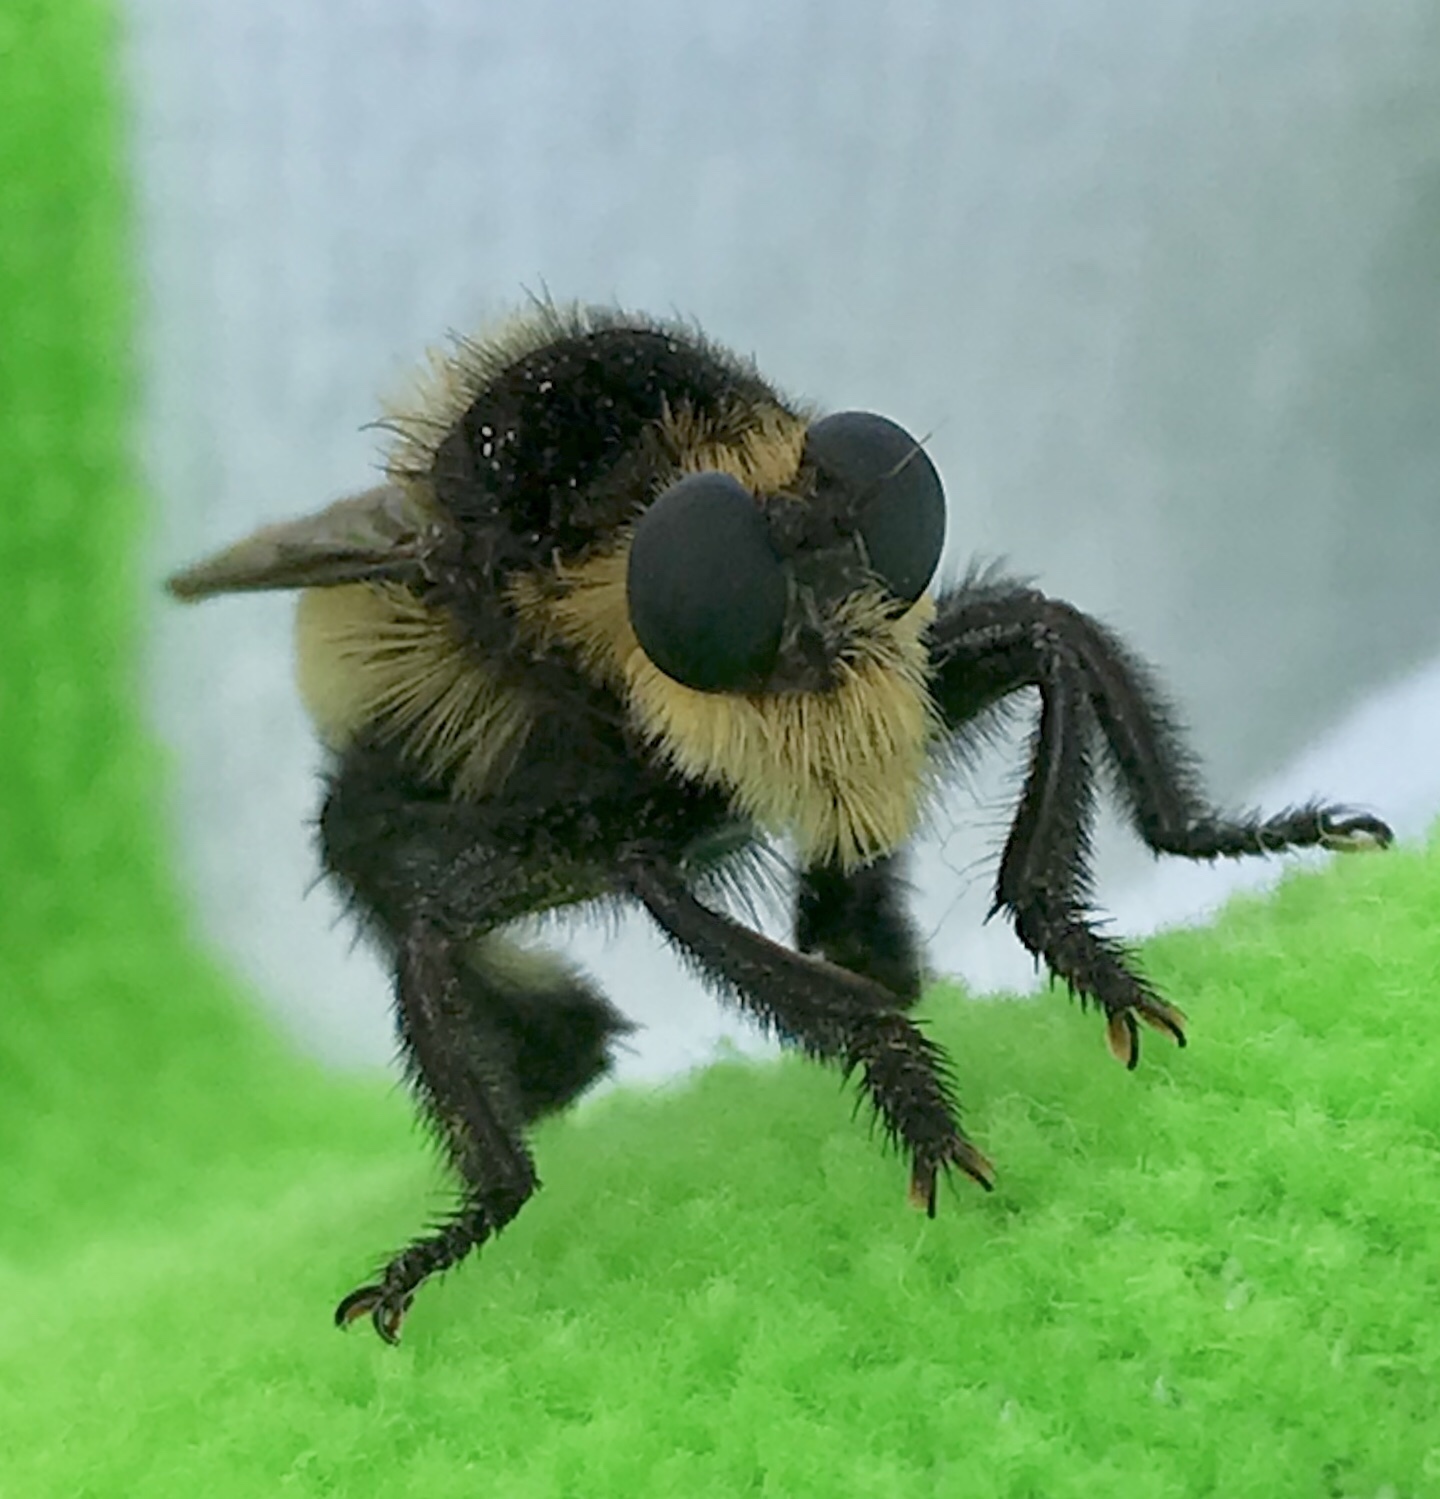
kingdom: Animalia
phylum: Arthropoda
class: Insecta
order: Diptera
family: Asilidae
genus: Mallophora
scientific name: Mallophora
